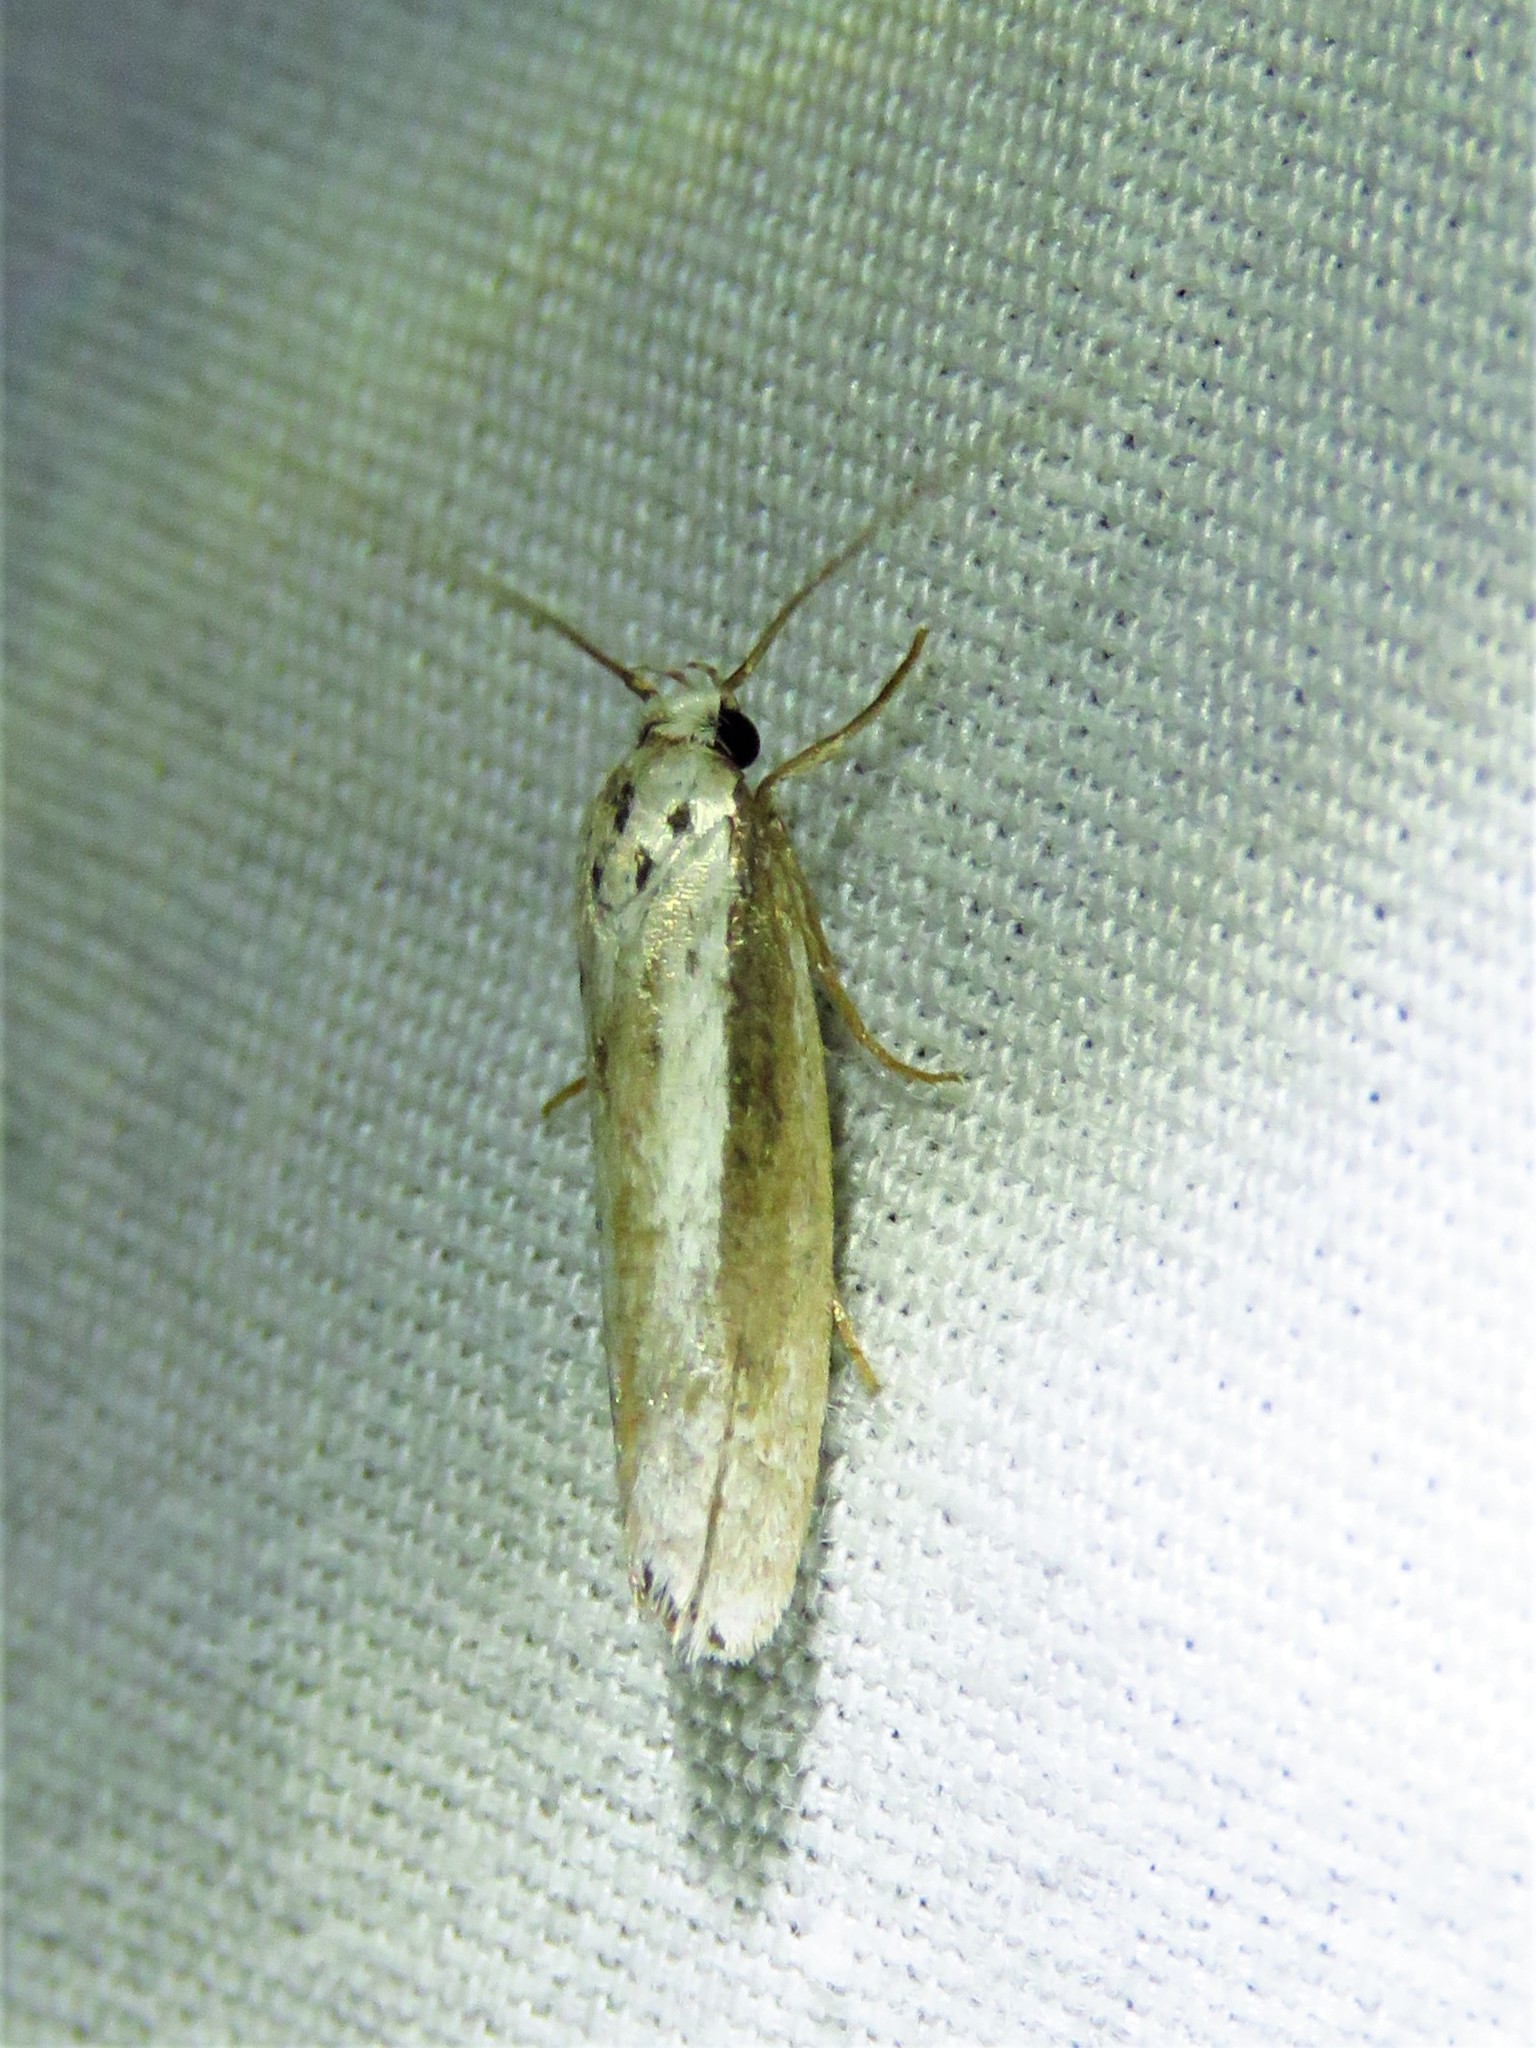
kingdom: Animalia
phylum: Arthropoda
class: Insecta
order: Lepidoptera
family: Ethmiidae
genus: Ethmia
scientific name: Ethmia mirusella
